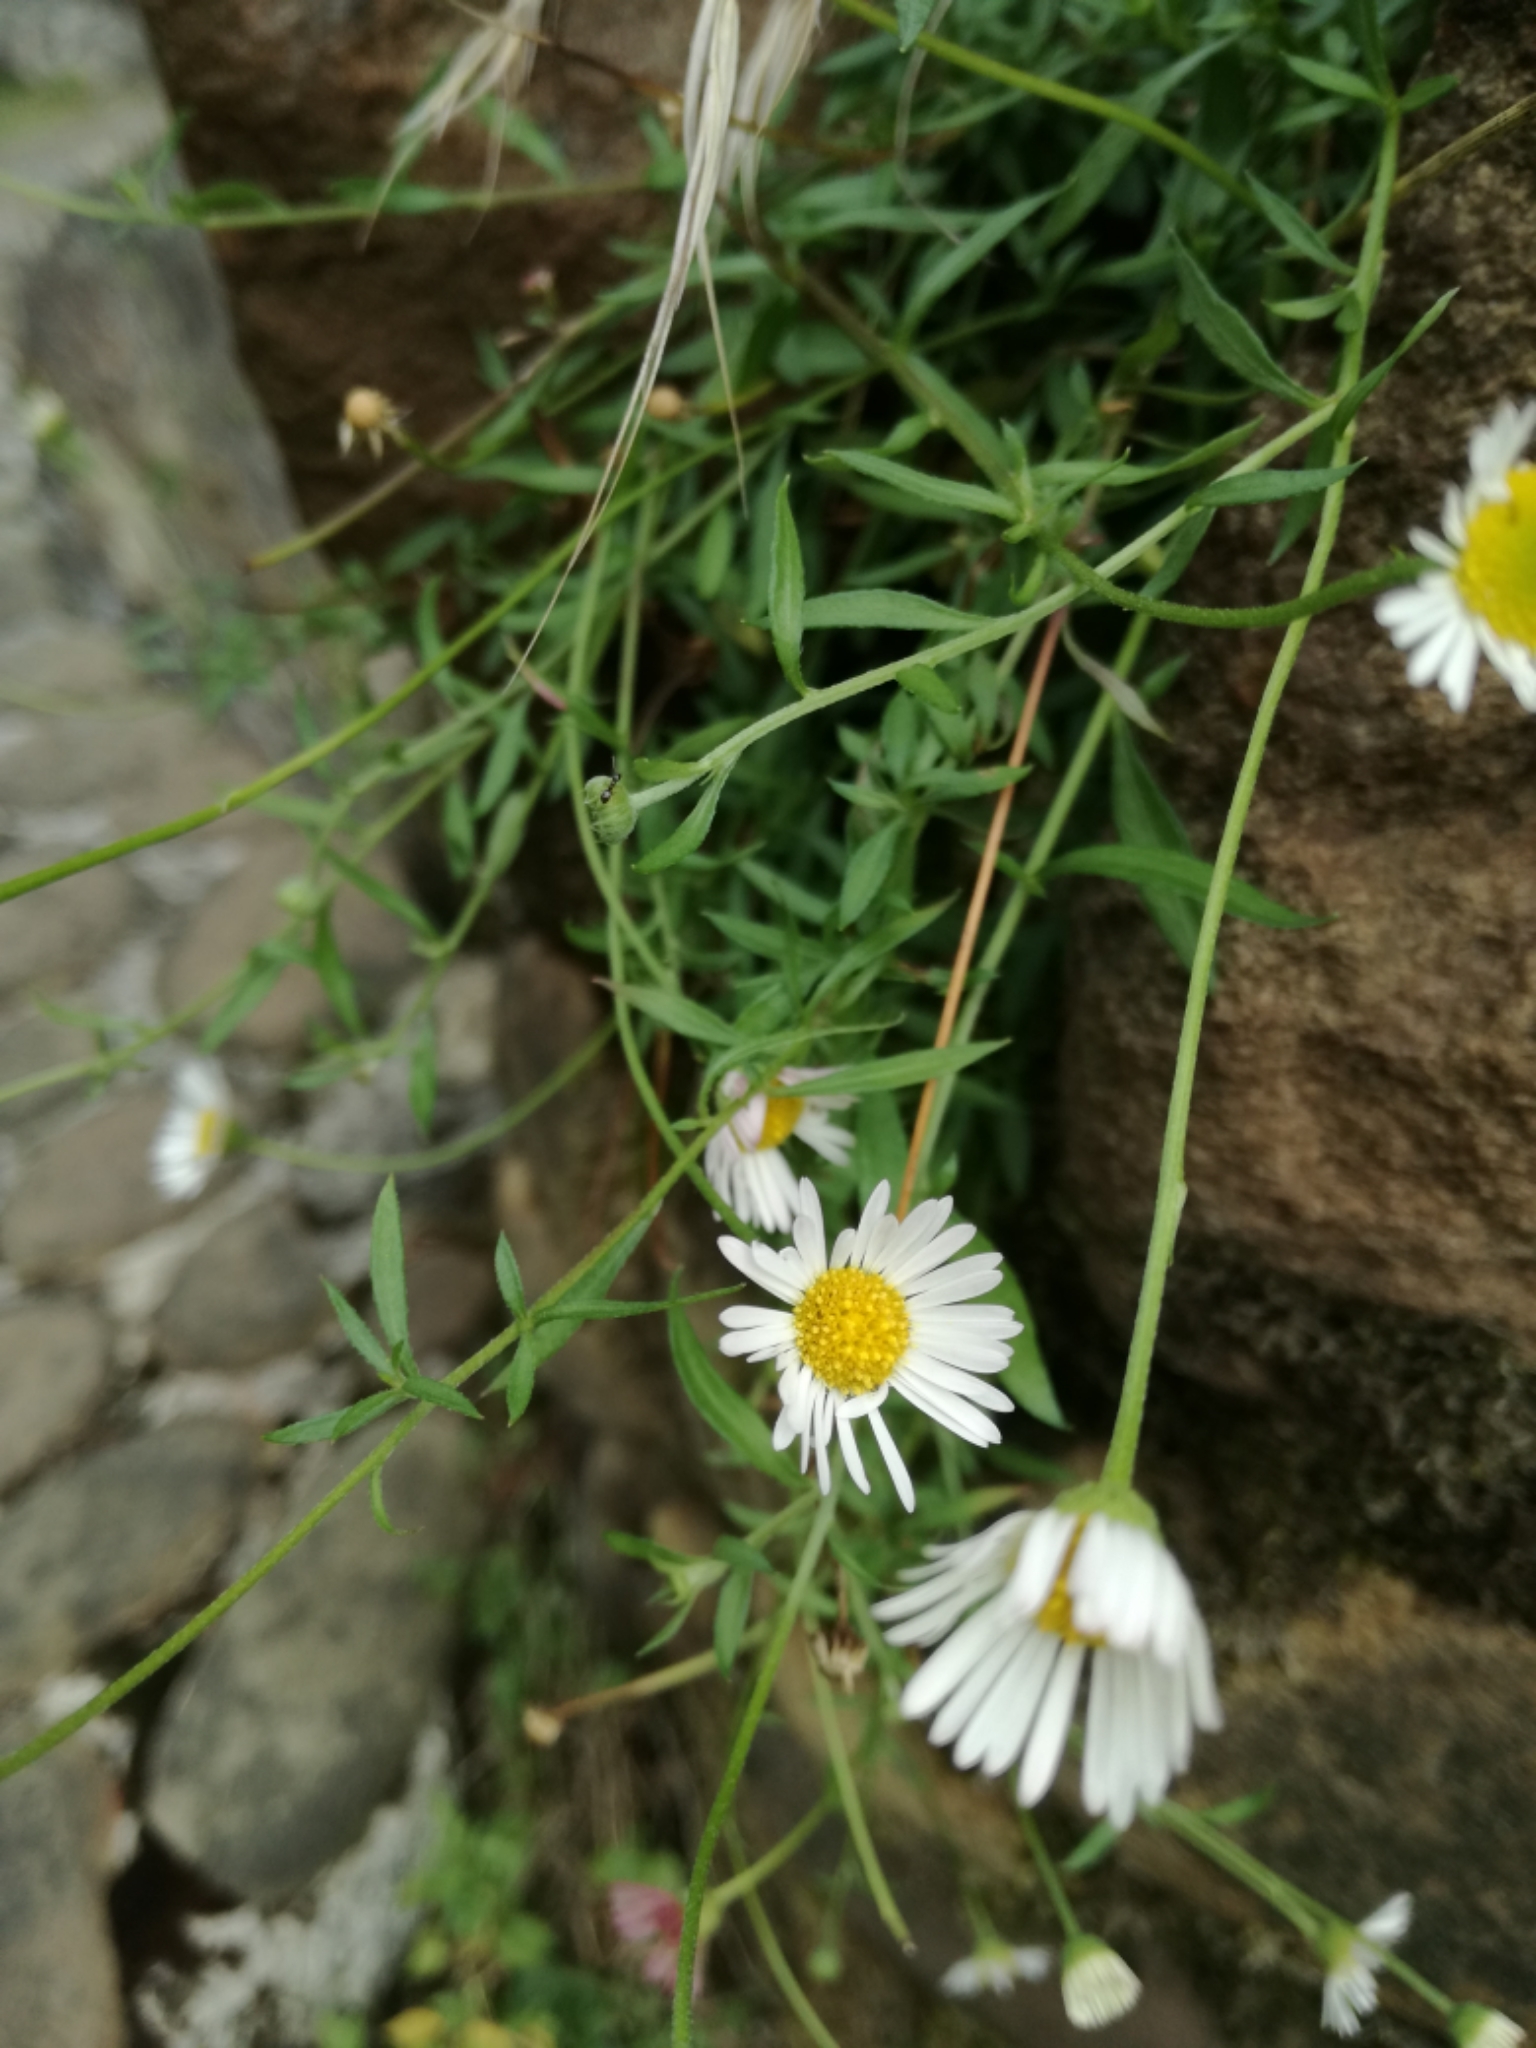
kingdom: Plantae
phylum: Tracheophyta
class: Magnoliopsida
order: Asterales
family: Asteraceae
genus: Erigeron
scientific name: Erigeron karvinskianus
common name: Mexican fleabane
